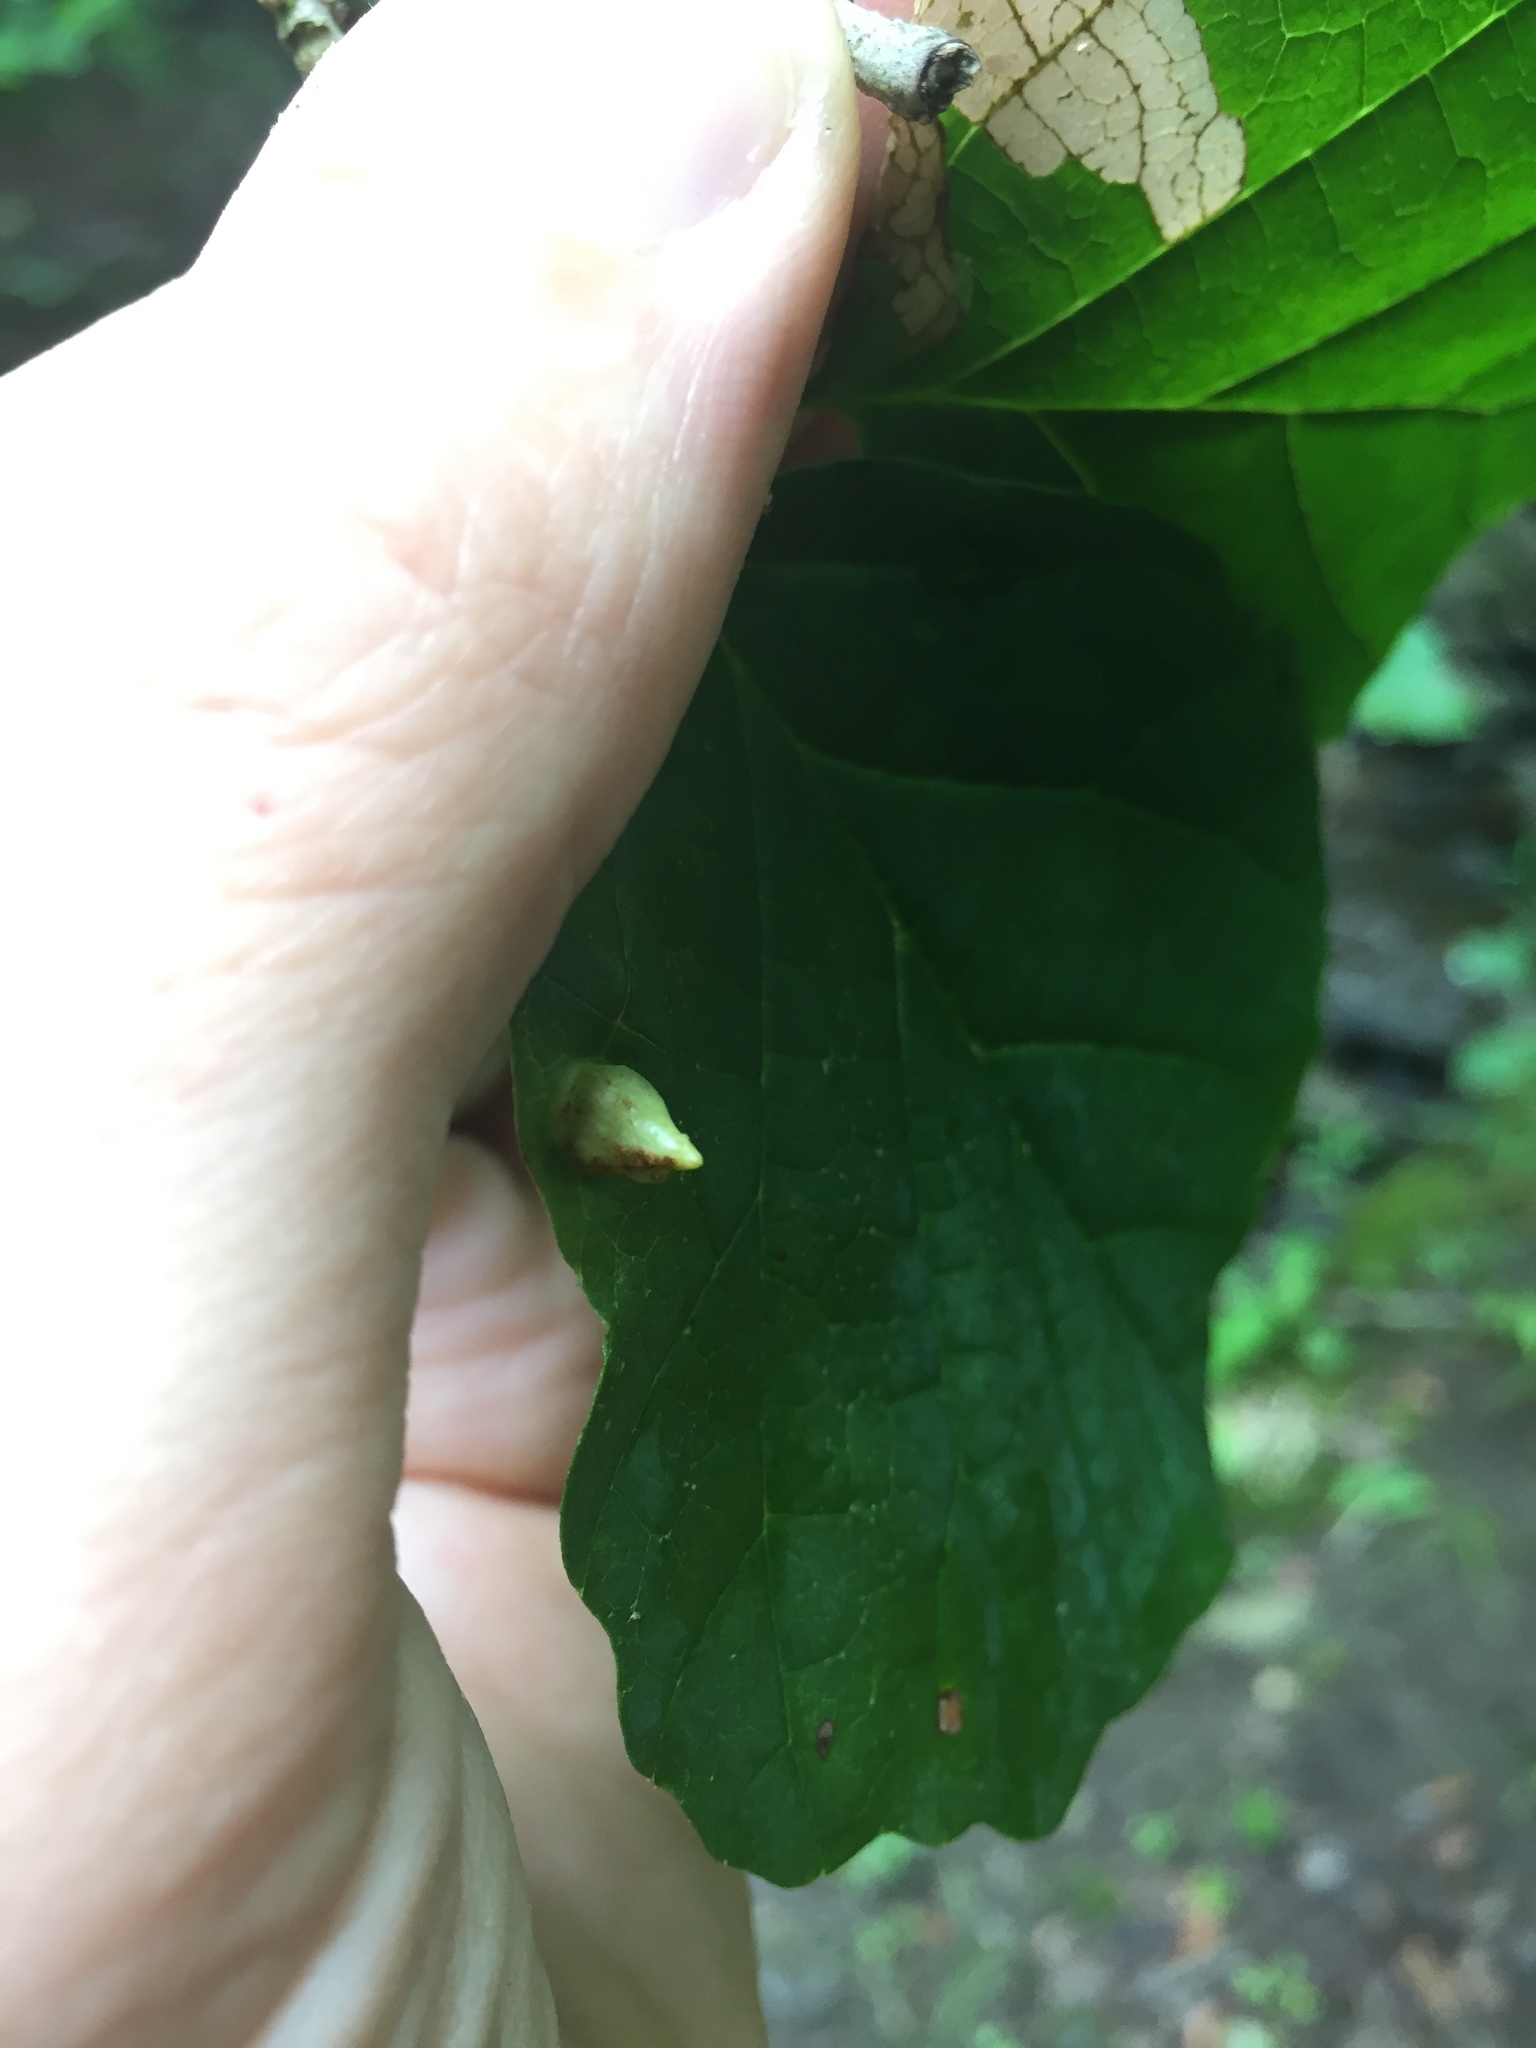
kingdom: Animalia
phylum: Arthropoda
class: Insecta
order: Hemiptera
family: Aphididae
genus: Hormaphis
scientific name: Hormaphis hamamelidis
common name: Witch-hazel cone gall aphid
